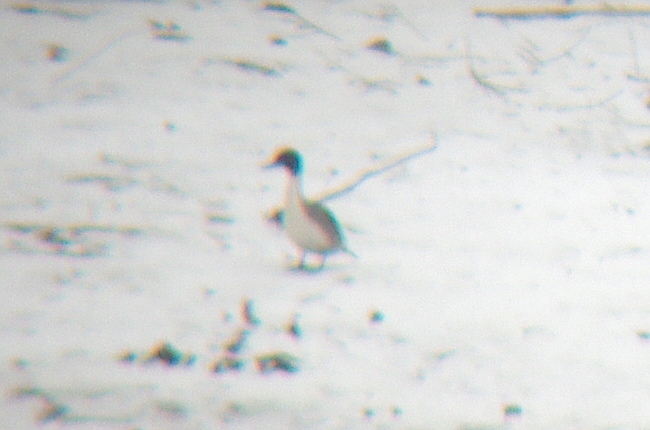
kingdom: Animalia
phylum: Chordata
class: Aves
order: Anseriformes
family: Anatidae
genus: Anas
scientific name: Anas acuta
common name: Northern pintail
